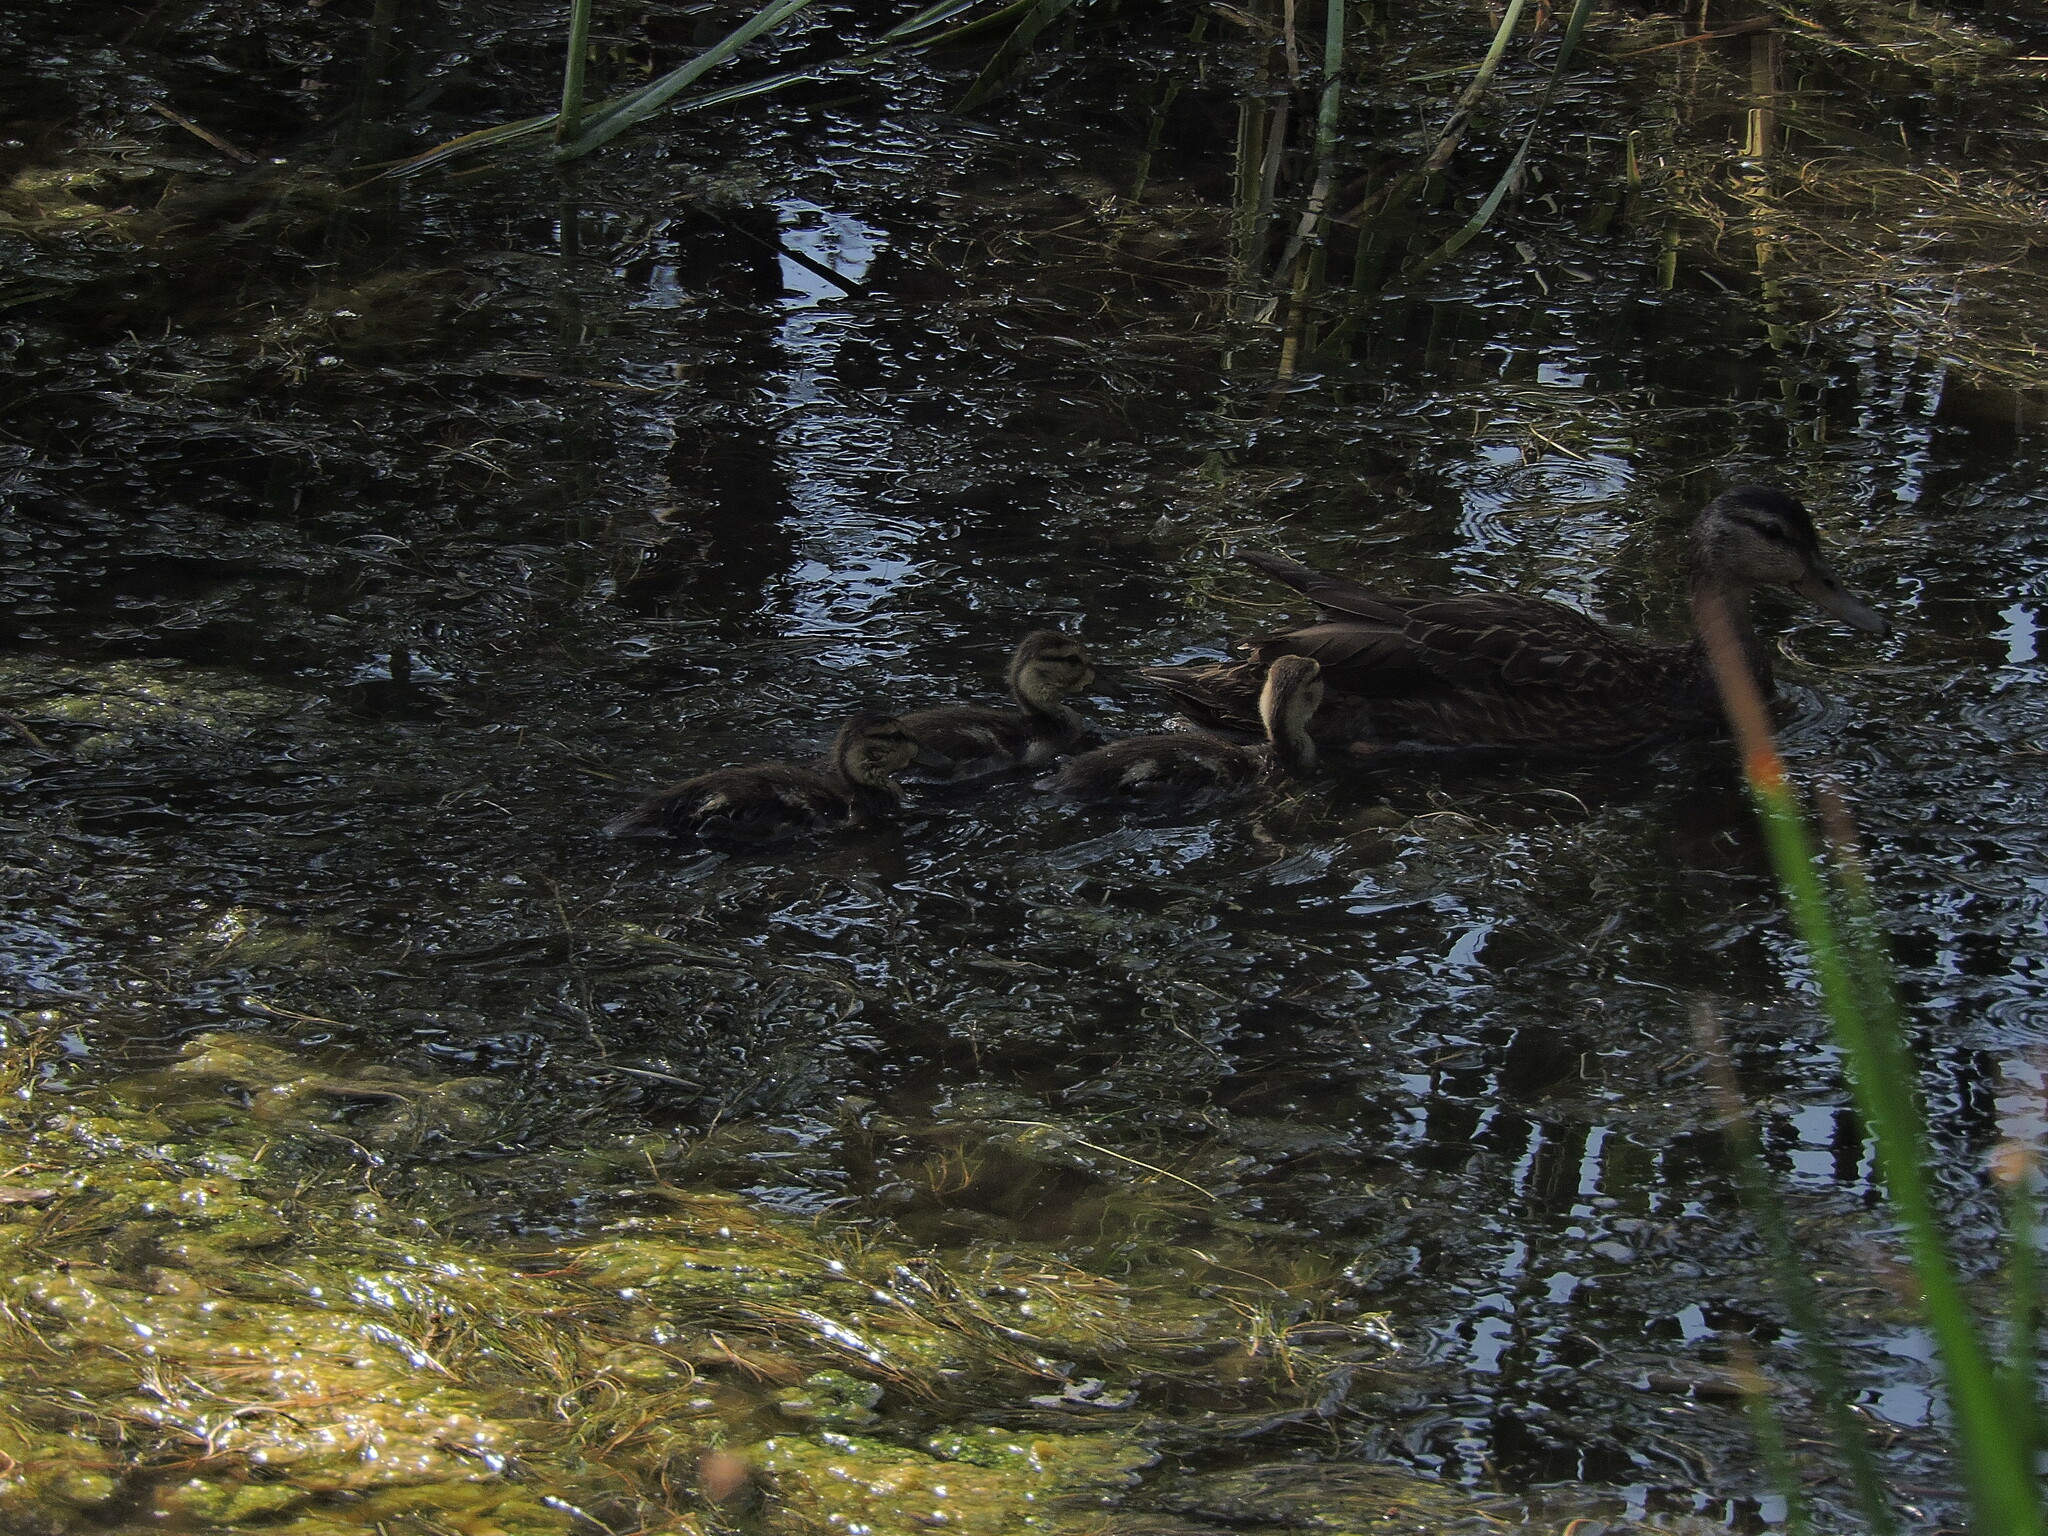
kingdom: Animalia
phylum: Chordata
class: Aves
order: Anseriformes
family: Anatidae
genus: Anas
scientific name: Anas diazi
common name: Mexican duck
